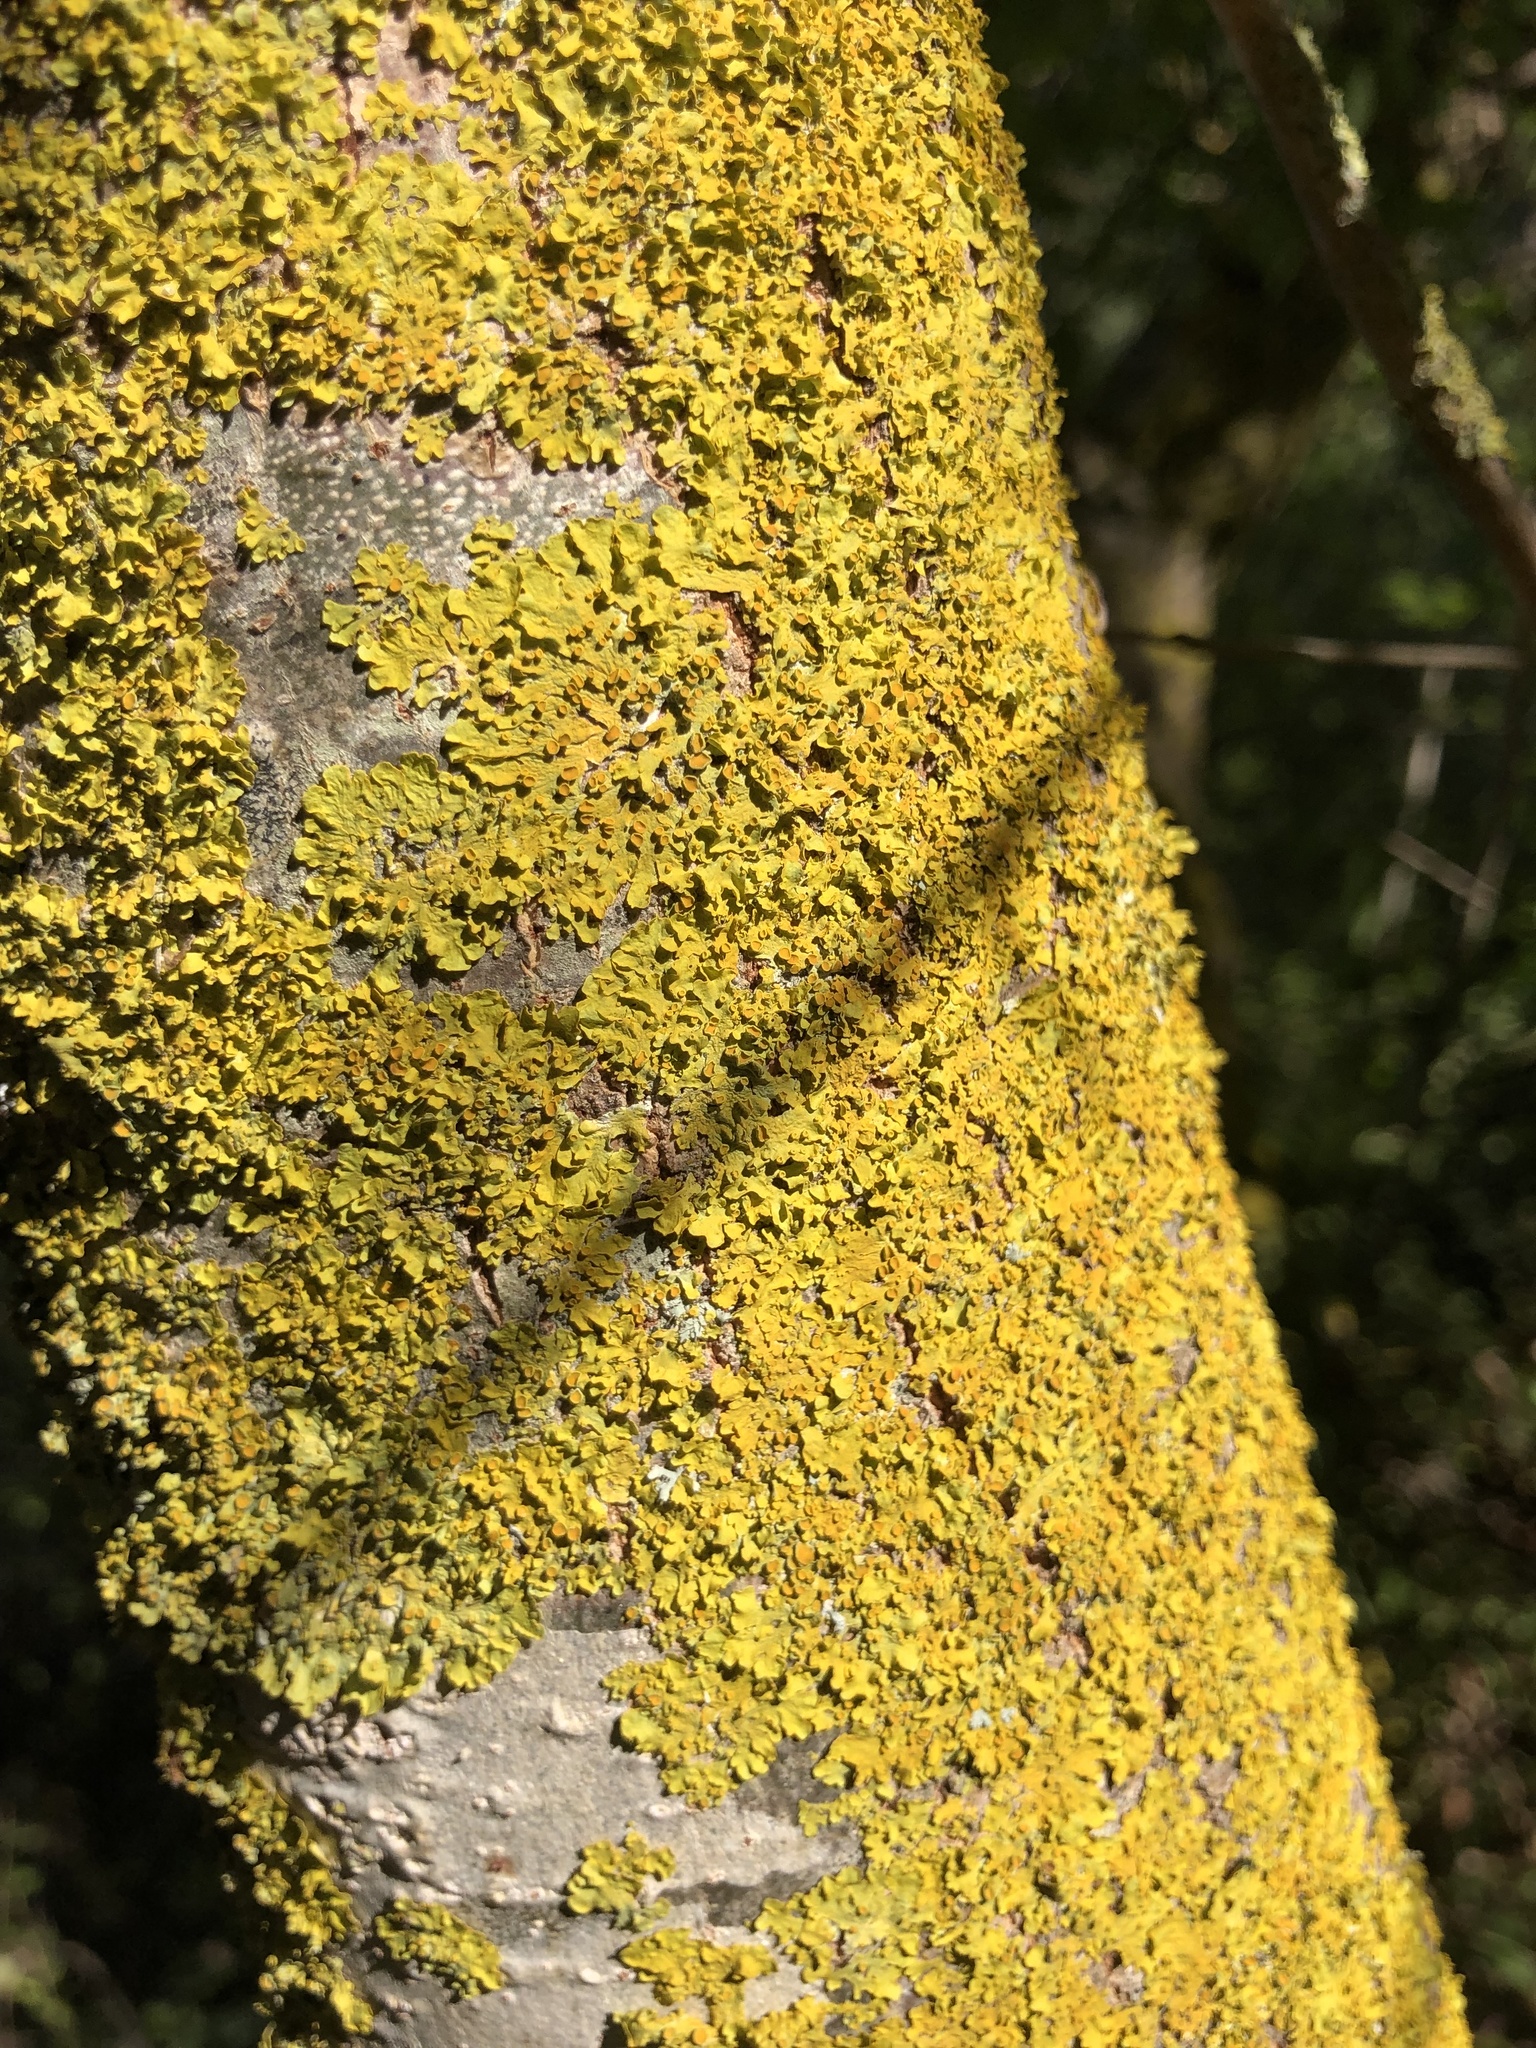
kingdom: Fungi
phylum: Ascomycota
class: Lecanoromycetes
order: Teloschistales
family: Teloschistaceae
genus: Xanthoria
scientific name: Xanthoria parietina
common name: Common orange lichen
